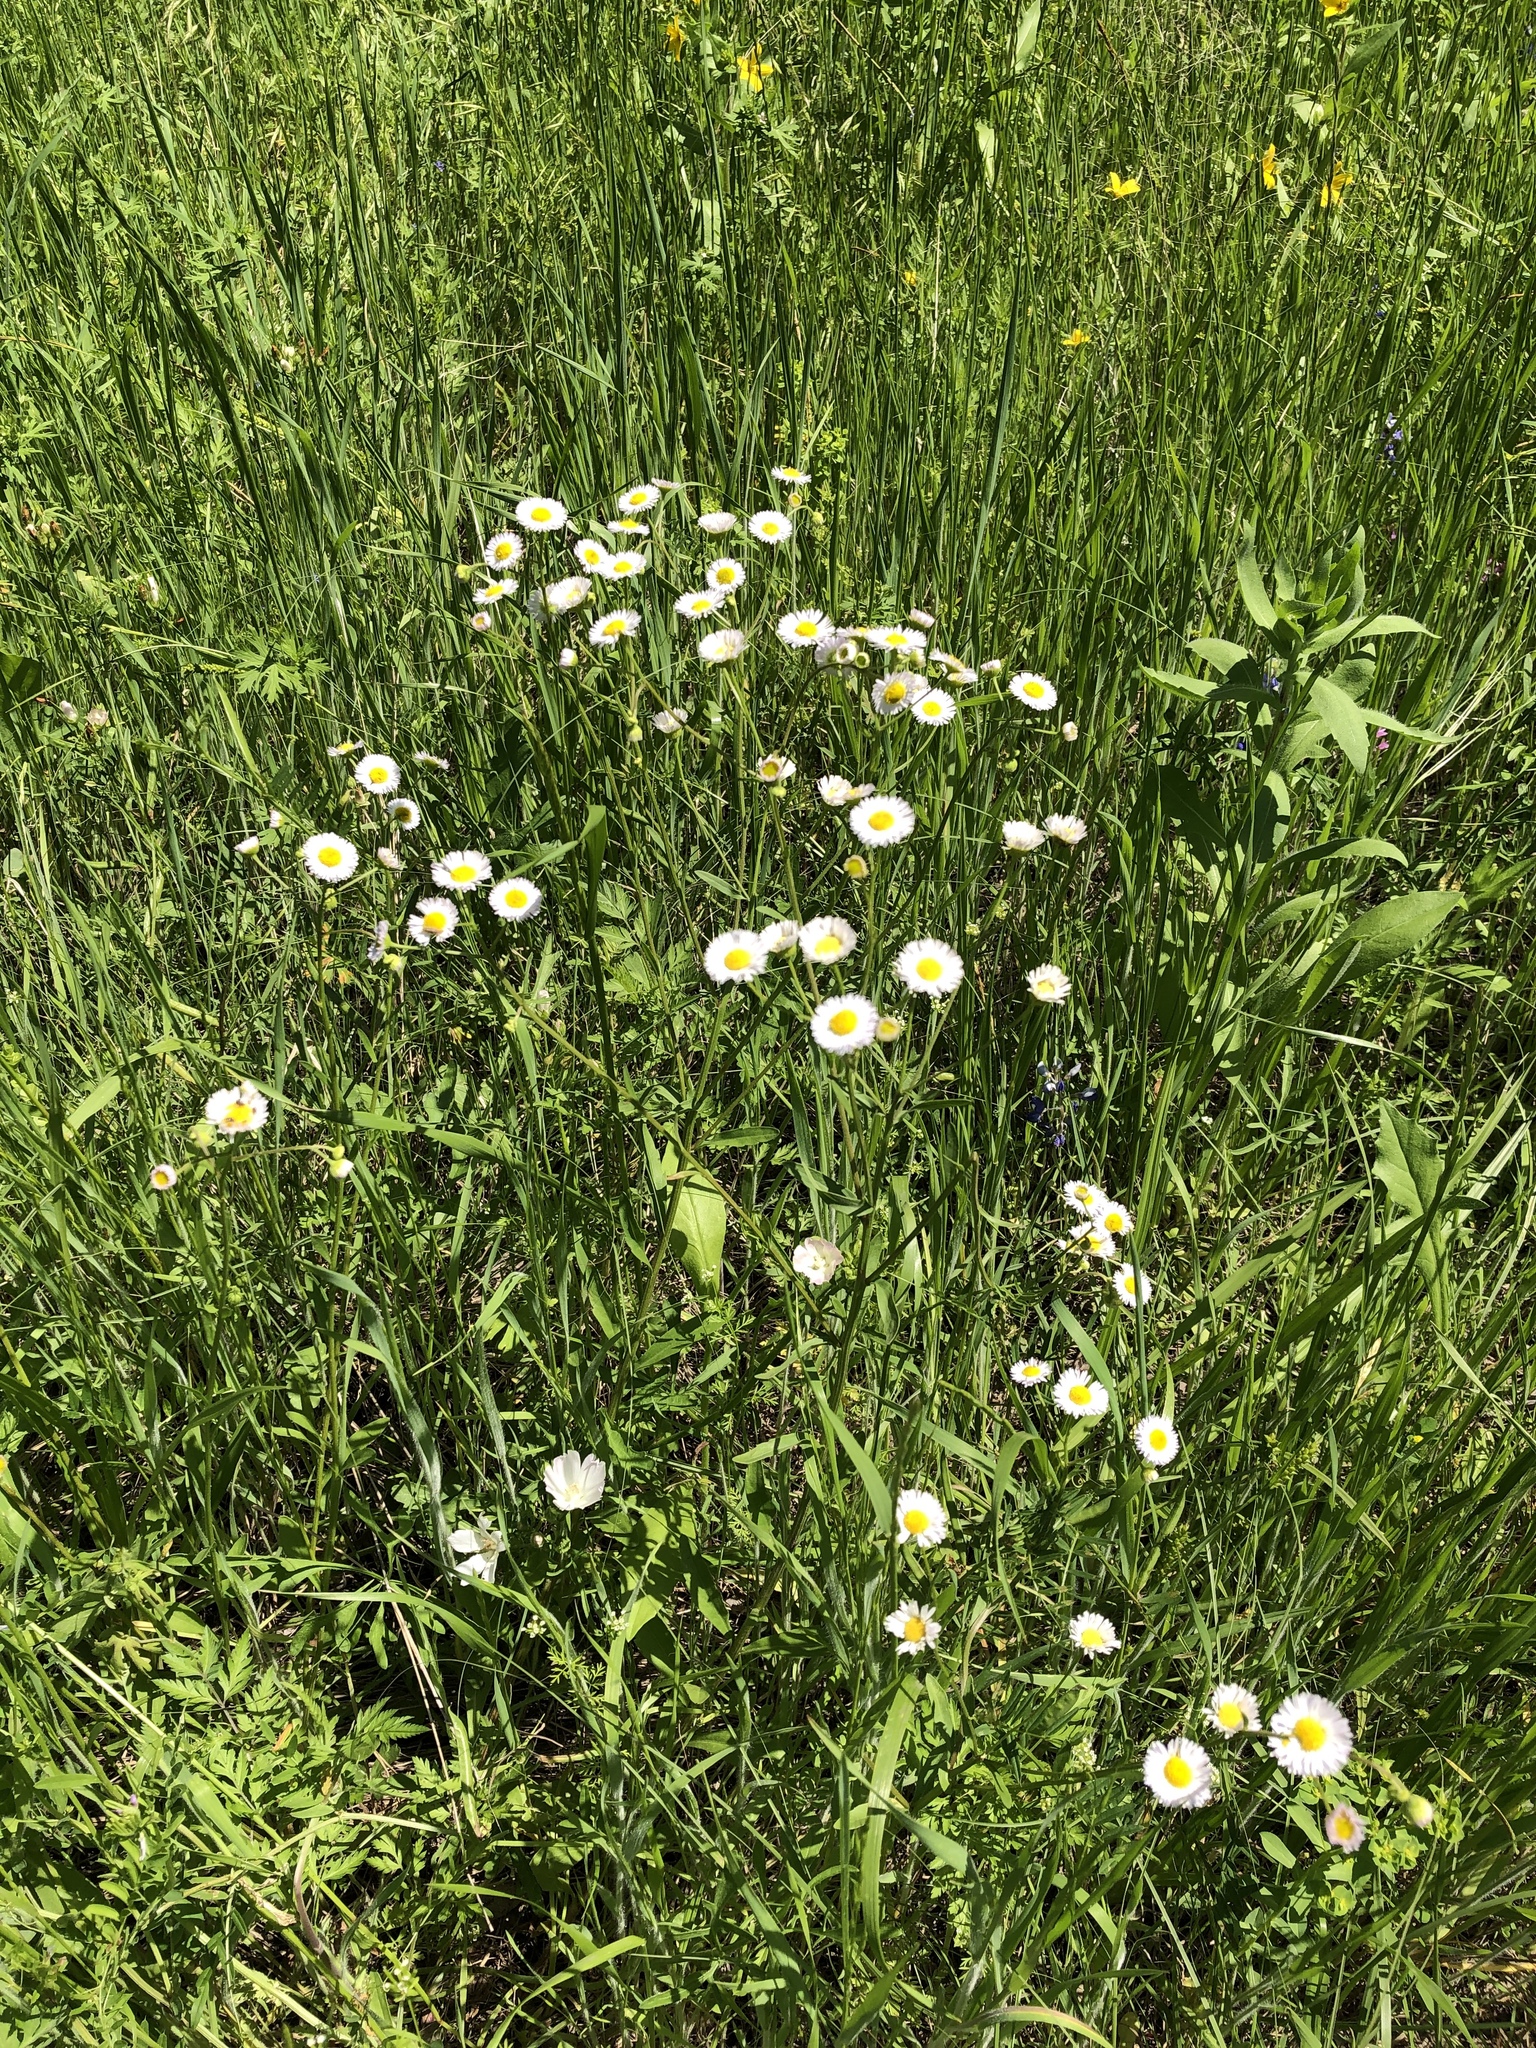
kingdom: Plantae
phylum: Tracheophyta
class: Magnoliopsida
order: Asterales
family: Asteraceae
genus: Erigeron
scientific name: Erigeron strigosus
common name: Common eastern fleabane
